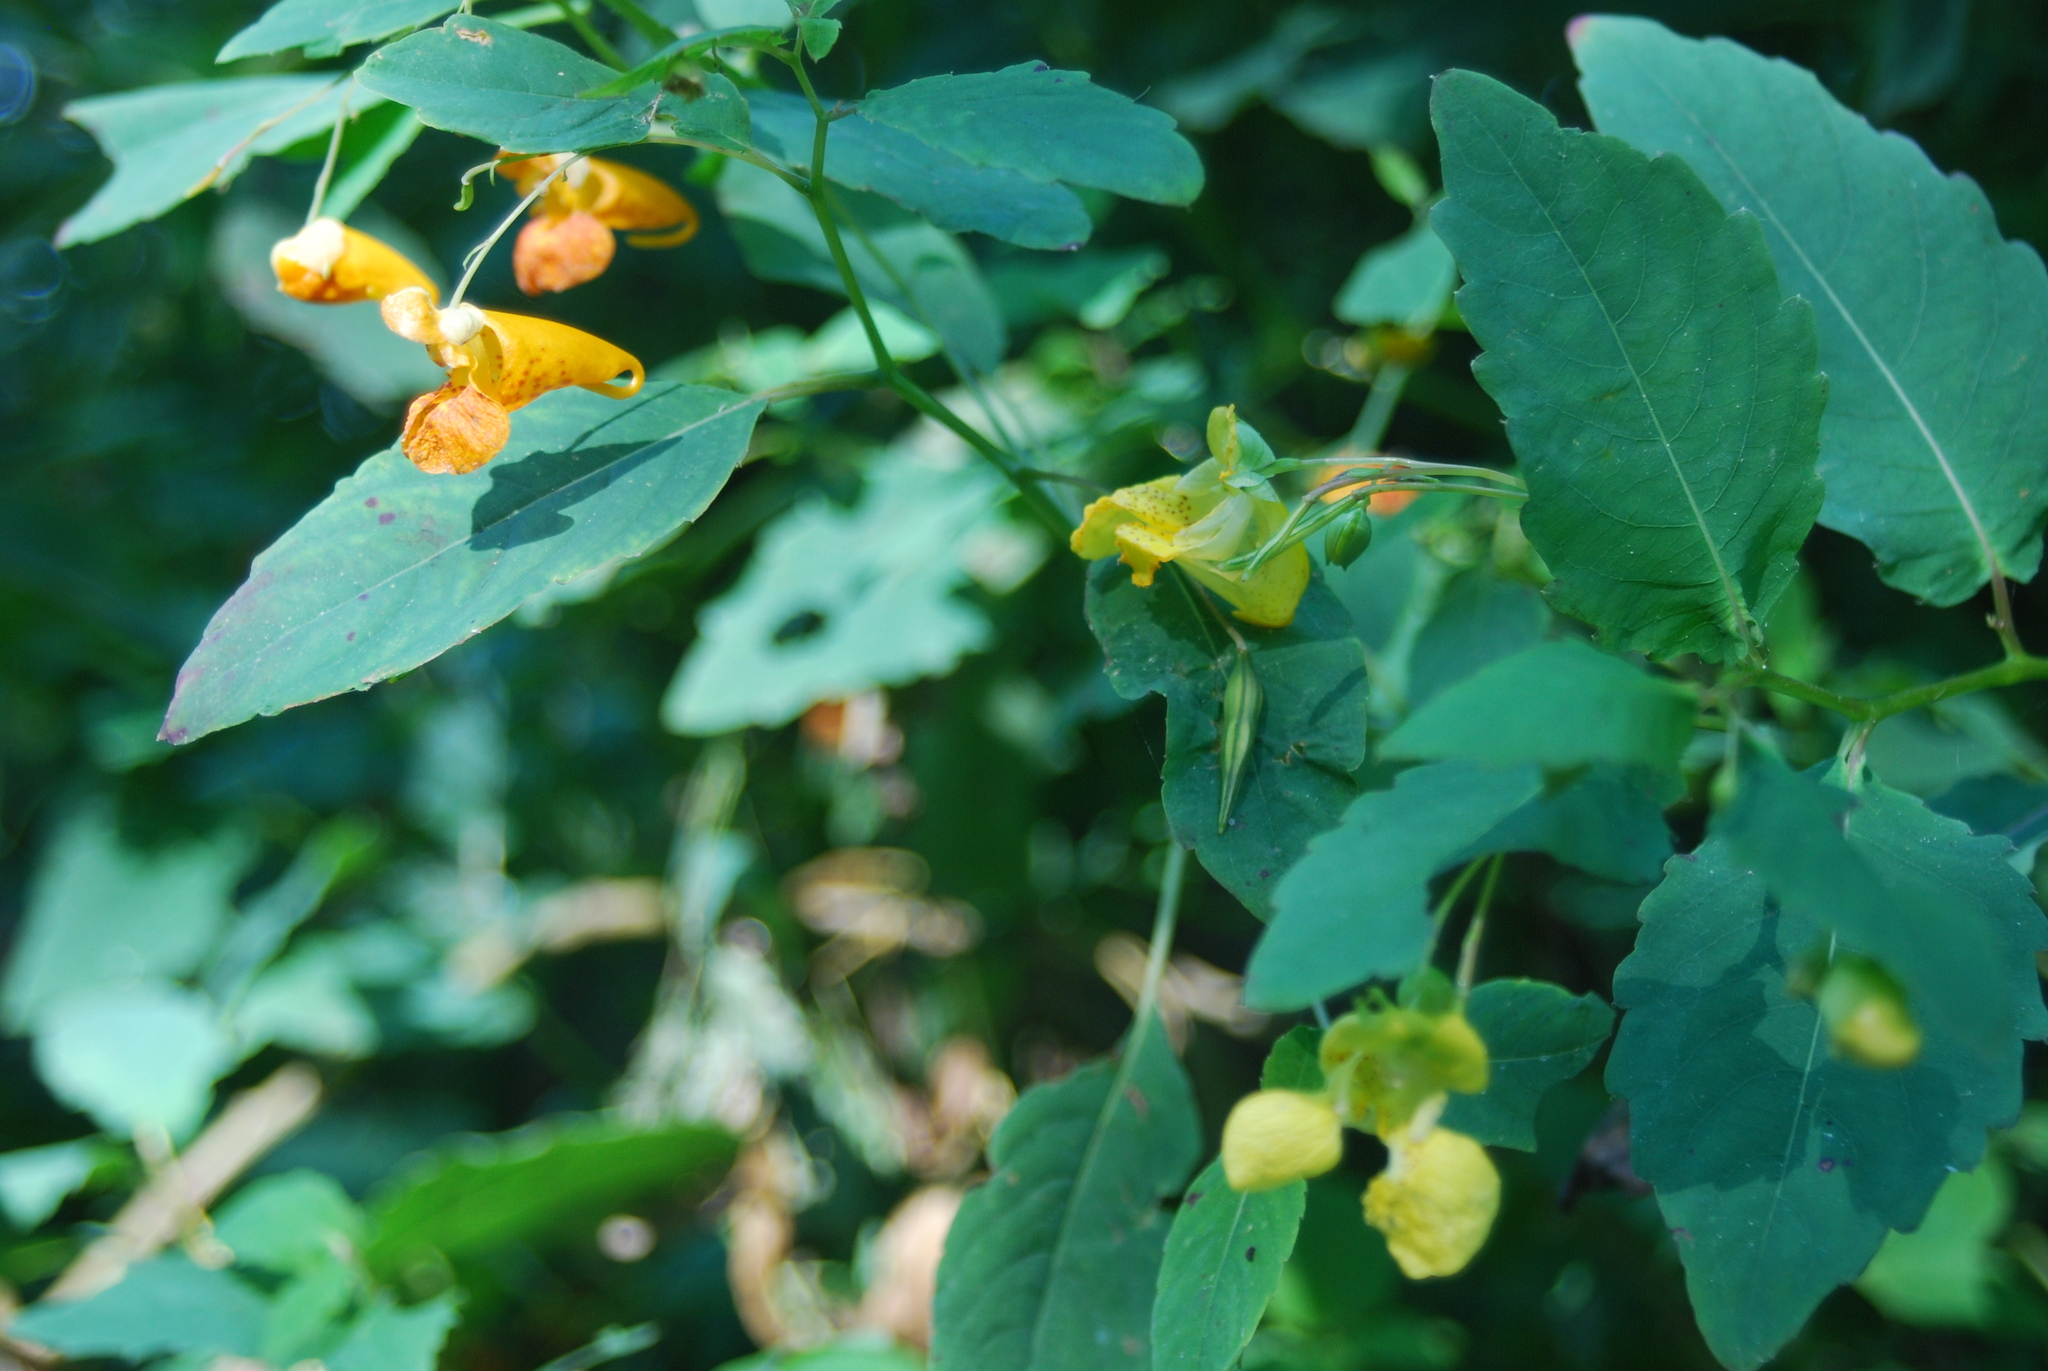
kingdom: Plantae
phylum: Tracheophyta
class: Magnoliopsida
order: Ericales
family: Balsaminaceae
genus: Impatiens
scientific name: Impatiens pallida
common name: Pale snapweed
